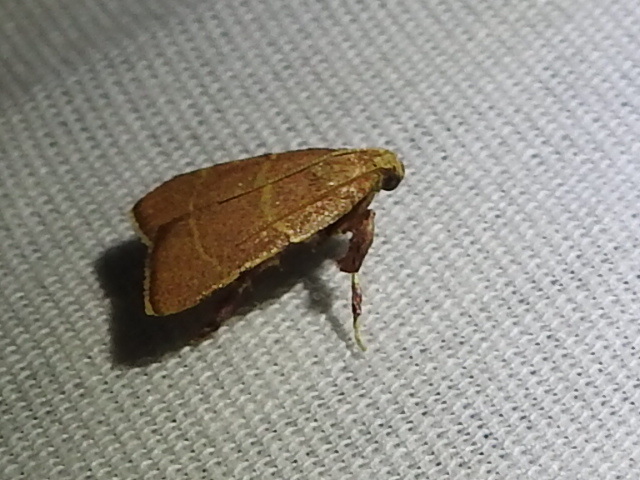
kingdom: Animalia
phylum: Arthropoda
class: Insecta
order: Lepidoptera
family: Pyralidae
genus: Parachma
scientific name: Parachma ochracealis
